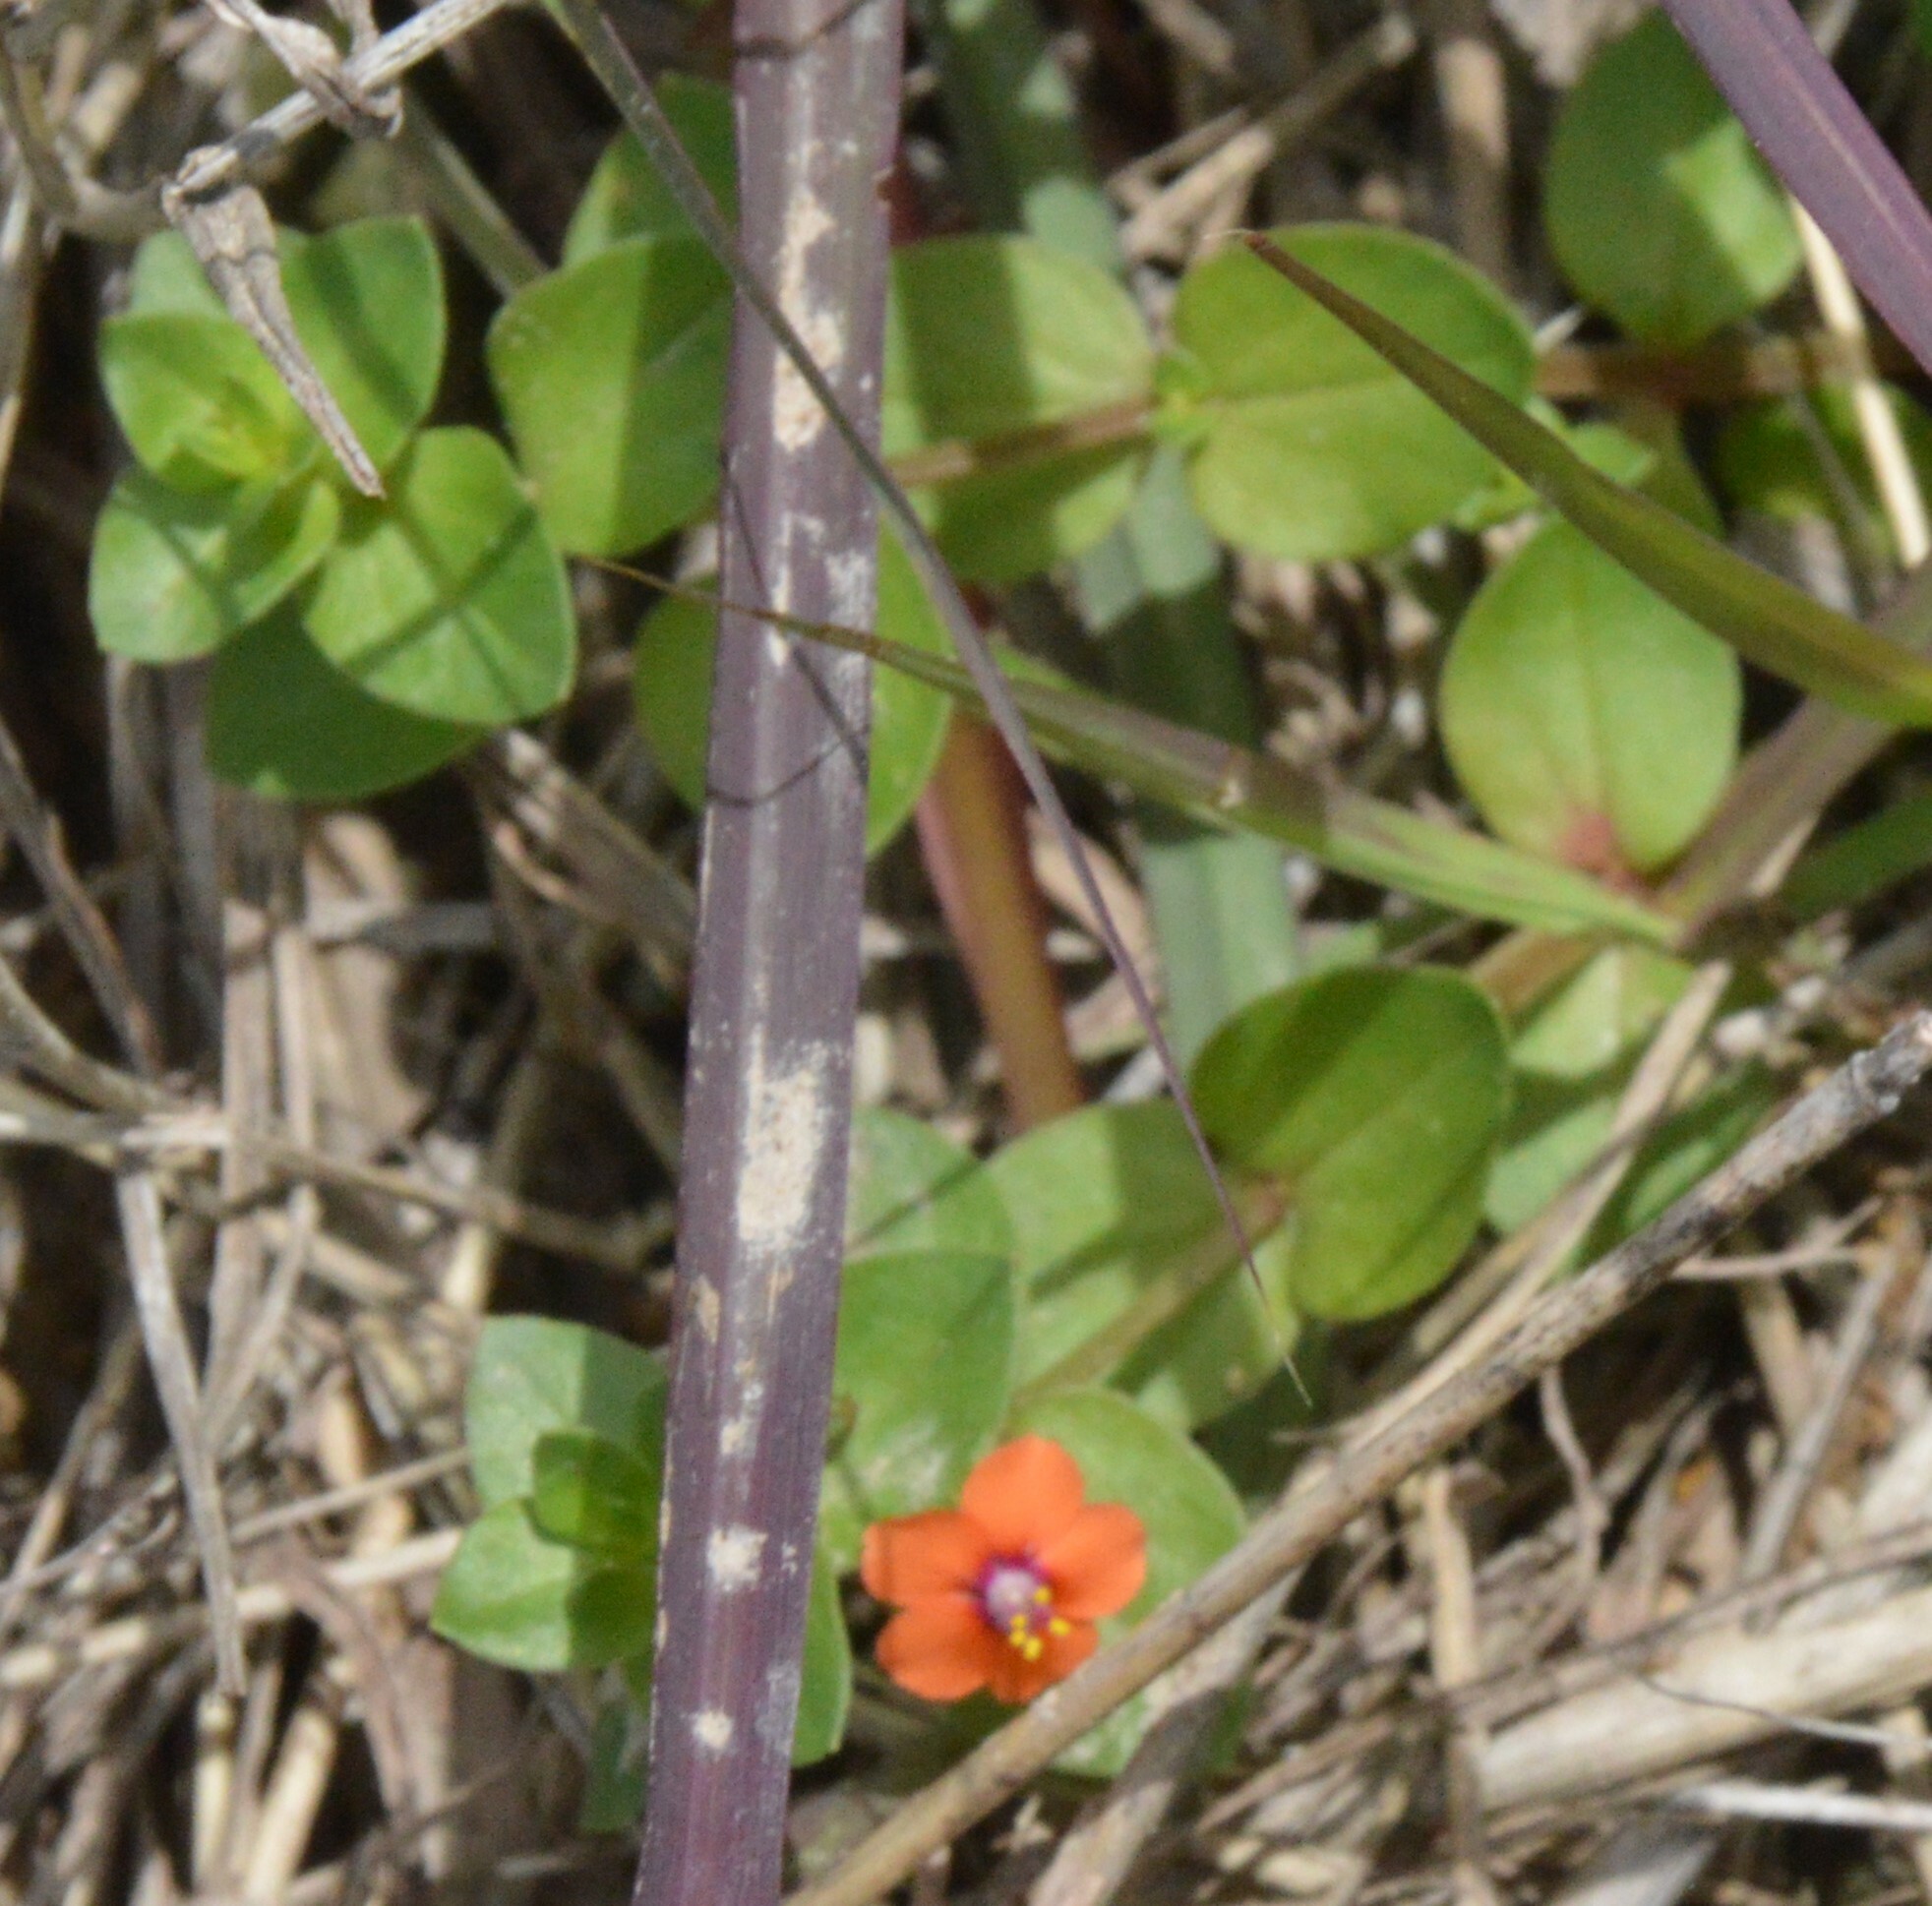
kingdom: Plantae
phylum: Tracheophyta
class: Magnoliopsida
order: Ericales
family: Primulaceae
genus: Lysimachia
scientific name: Lysimachia arvensis
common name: Scarlet pimpernel
